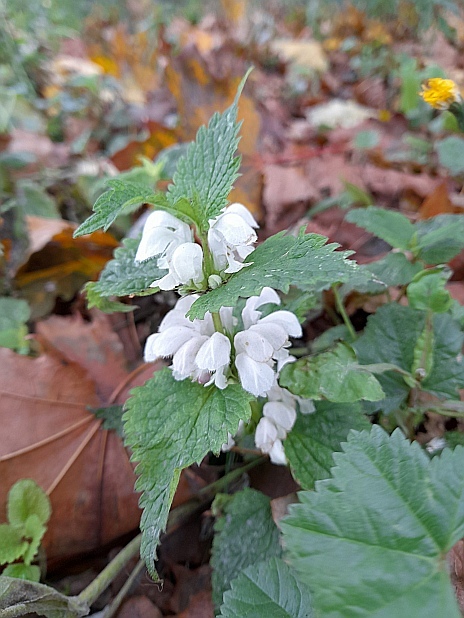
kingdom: Plantae
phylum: Tracheophyta
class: Magnoliopsida
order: Lamiales
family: Lamiaceae
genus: Lamium
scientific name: Lamium album
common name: White dead-nettle
